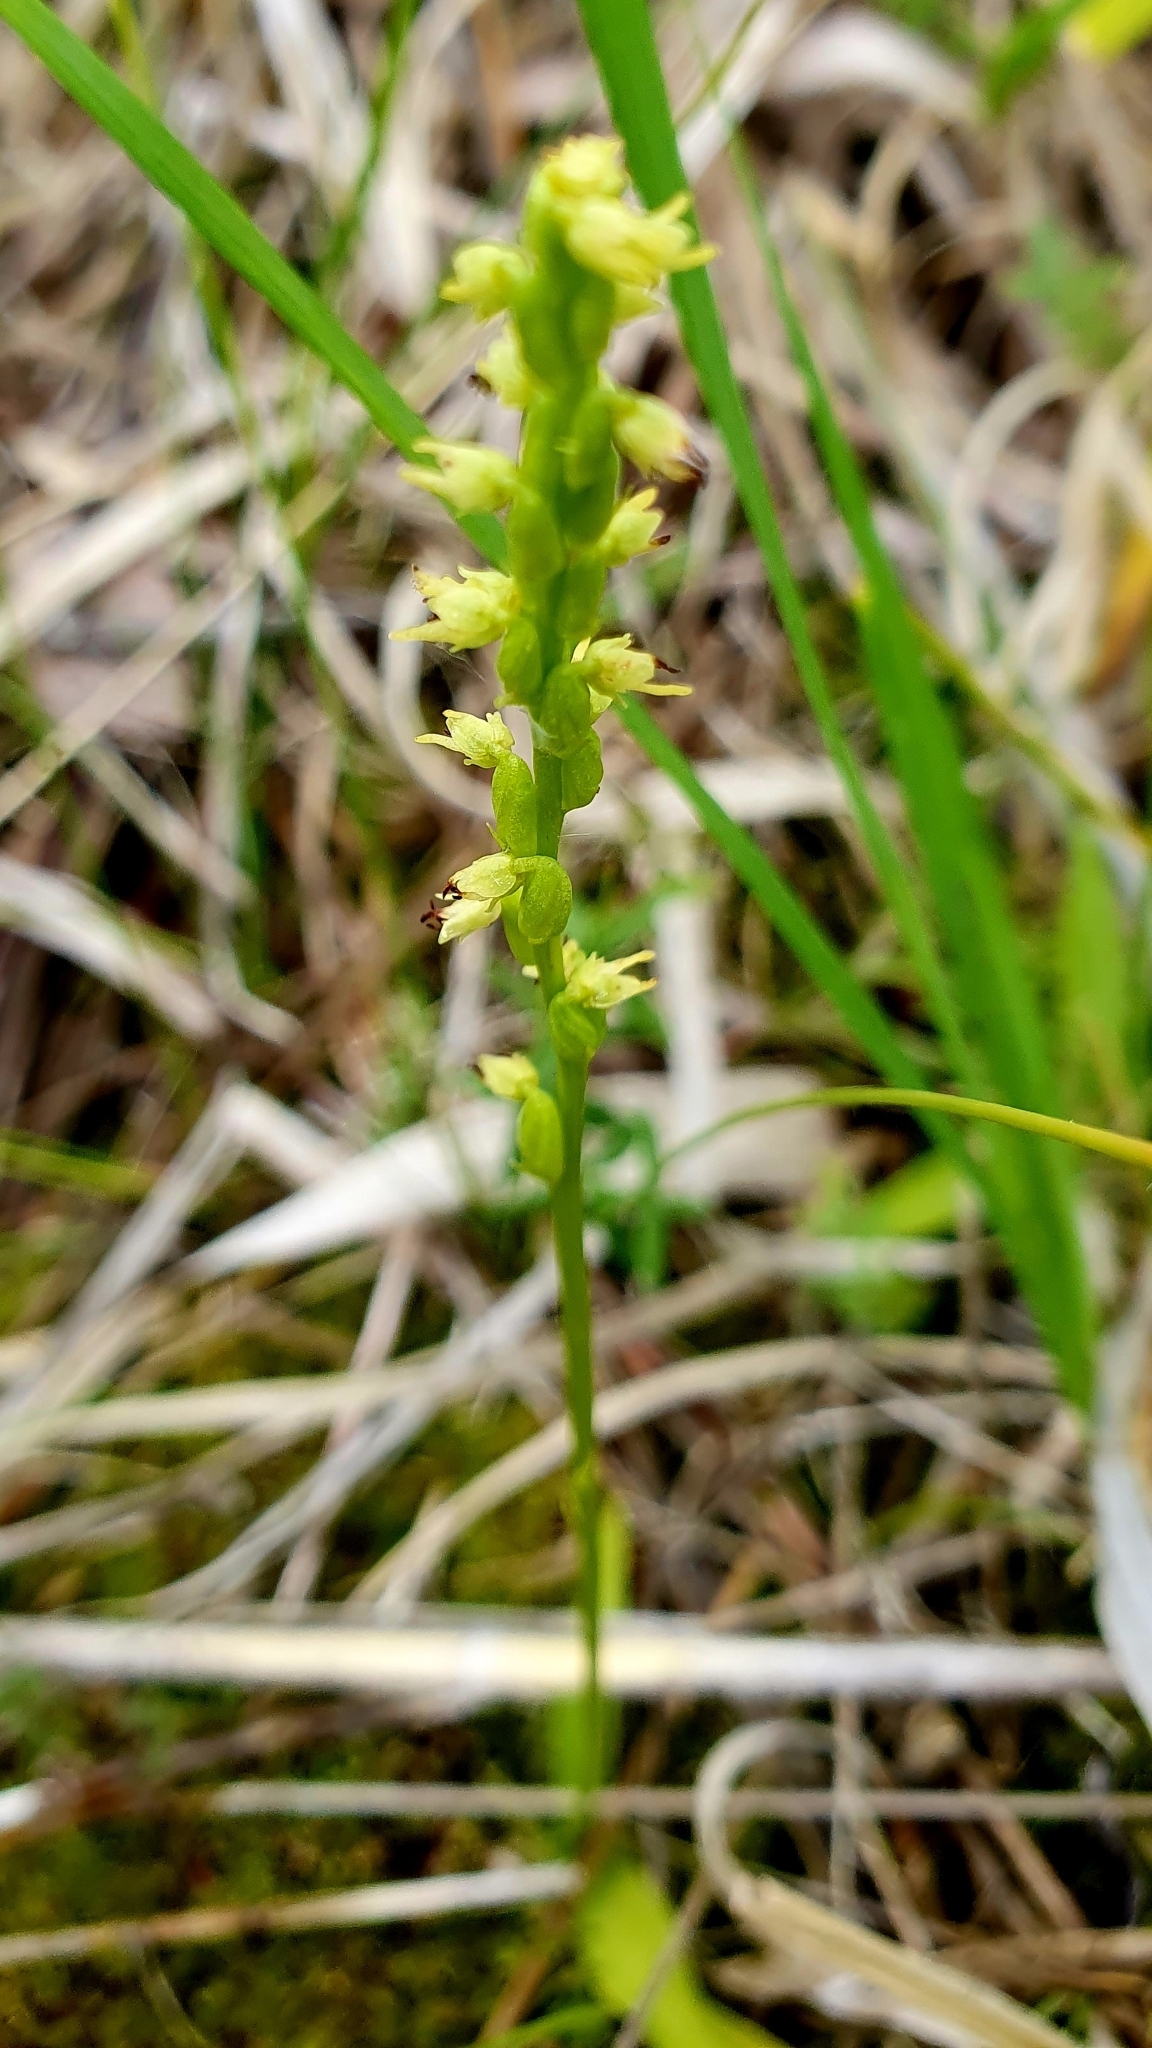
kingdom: Plantae
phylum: Tracheophyta
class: Liliopsida
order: Asparagales
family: Orchidaceae
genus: Herminium
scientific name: Herminium monorchis
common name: Musk orchid
